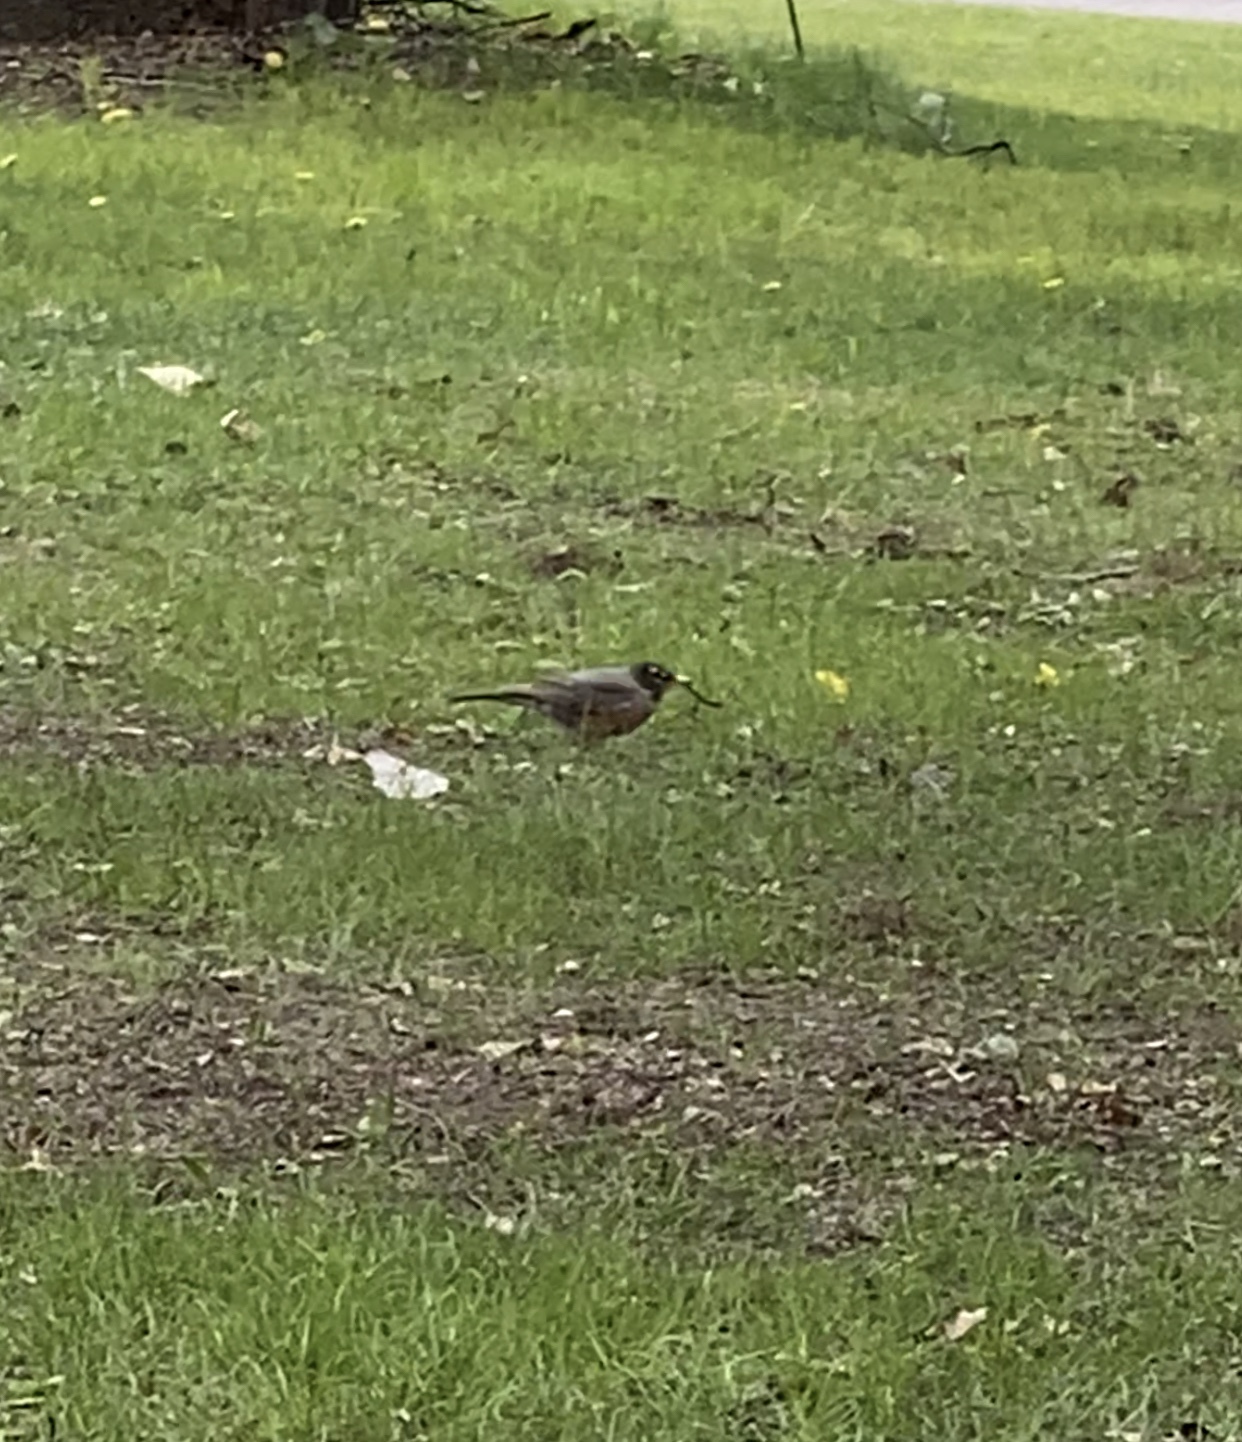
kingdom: Animalia
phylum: Chordata
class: Aves
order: Passeriformes
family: Turdidae
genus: Turdus
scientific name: Turdus migratorius
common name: American robin
